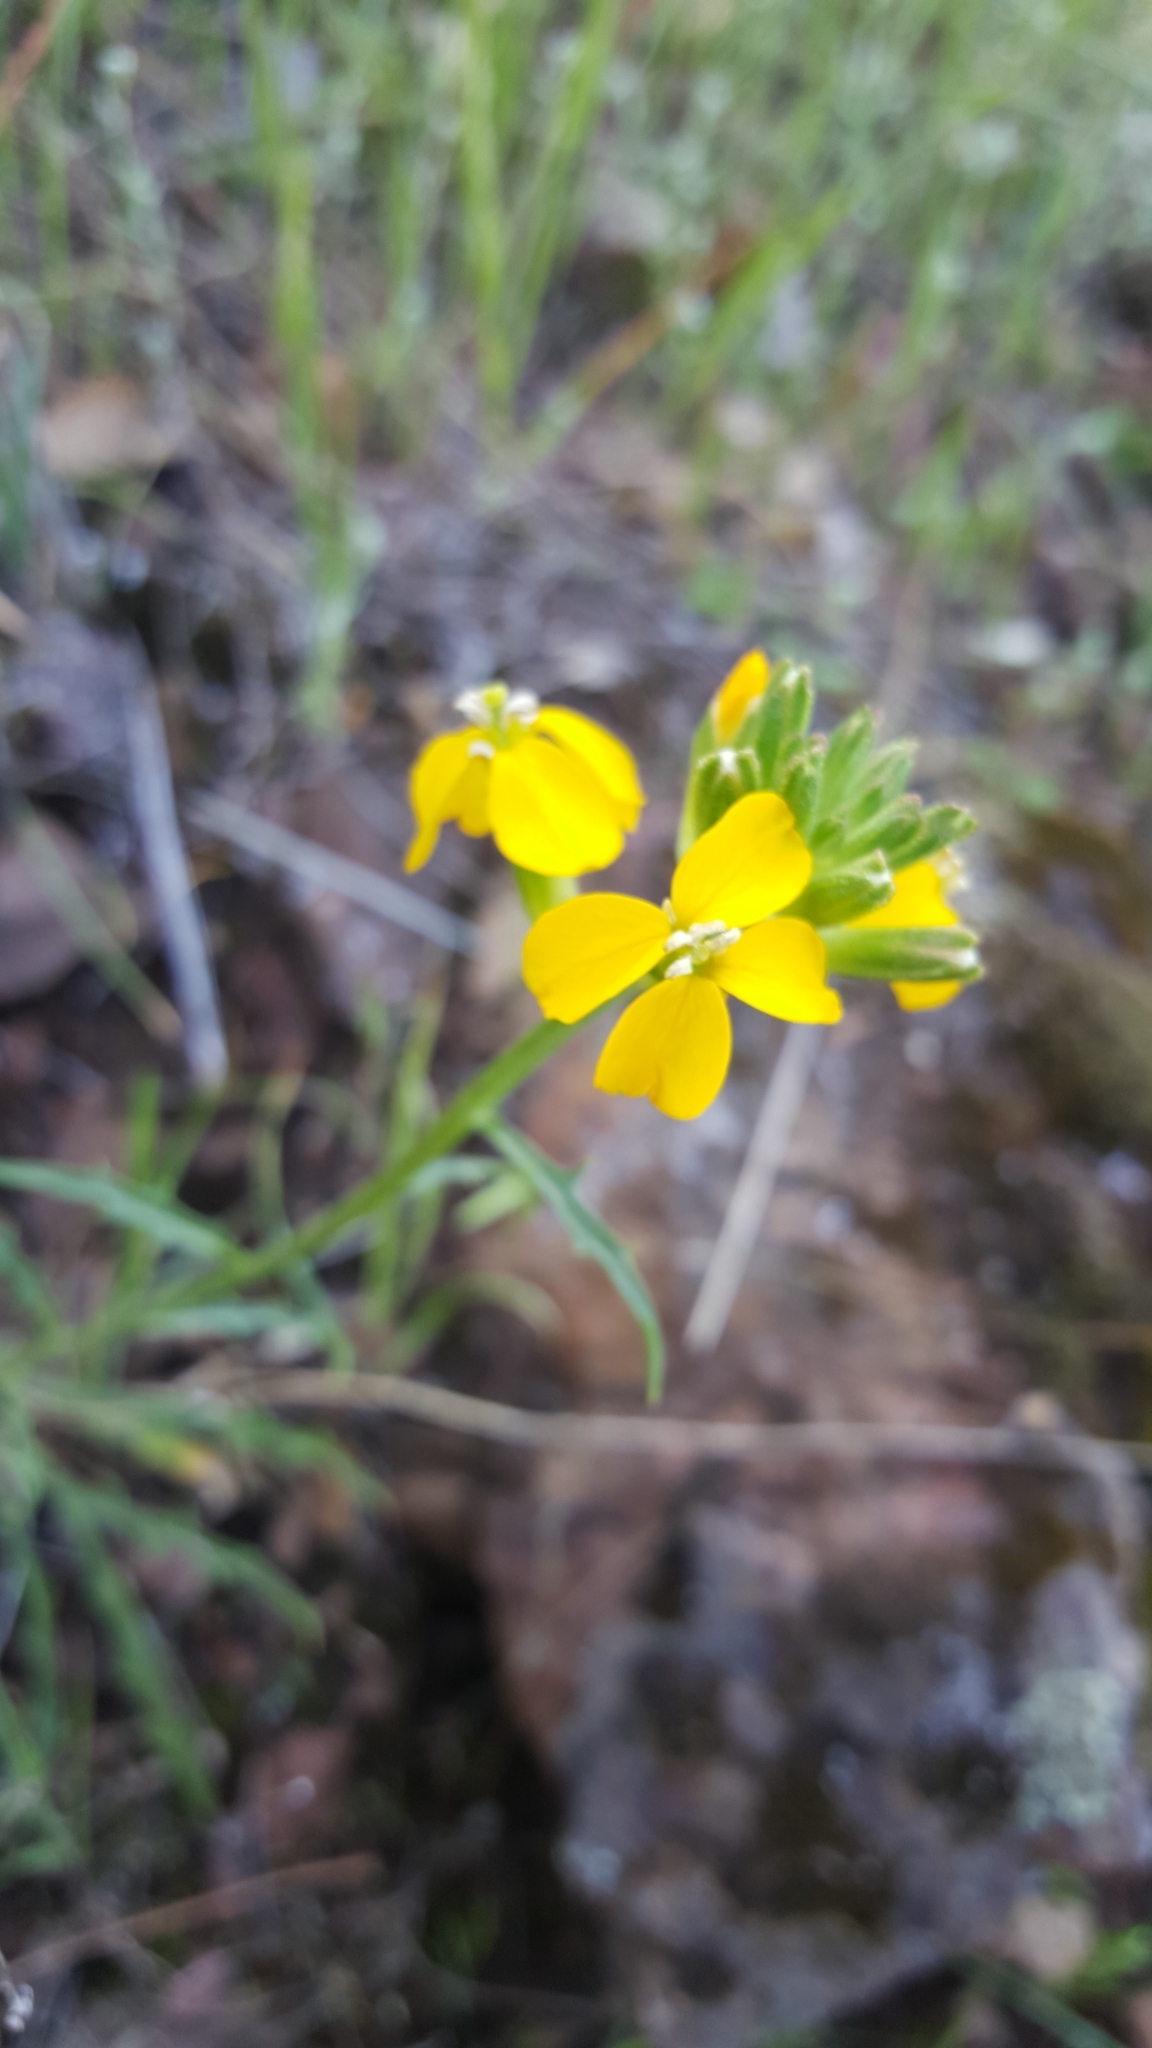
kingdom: Plantae
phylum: Tracheophyta
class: Magnoliopsida
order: Brassicales
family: Brassicaceae
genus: Erysimum
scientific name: Erysimum capitatum
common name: Western wallflower
